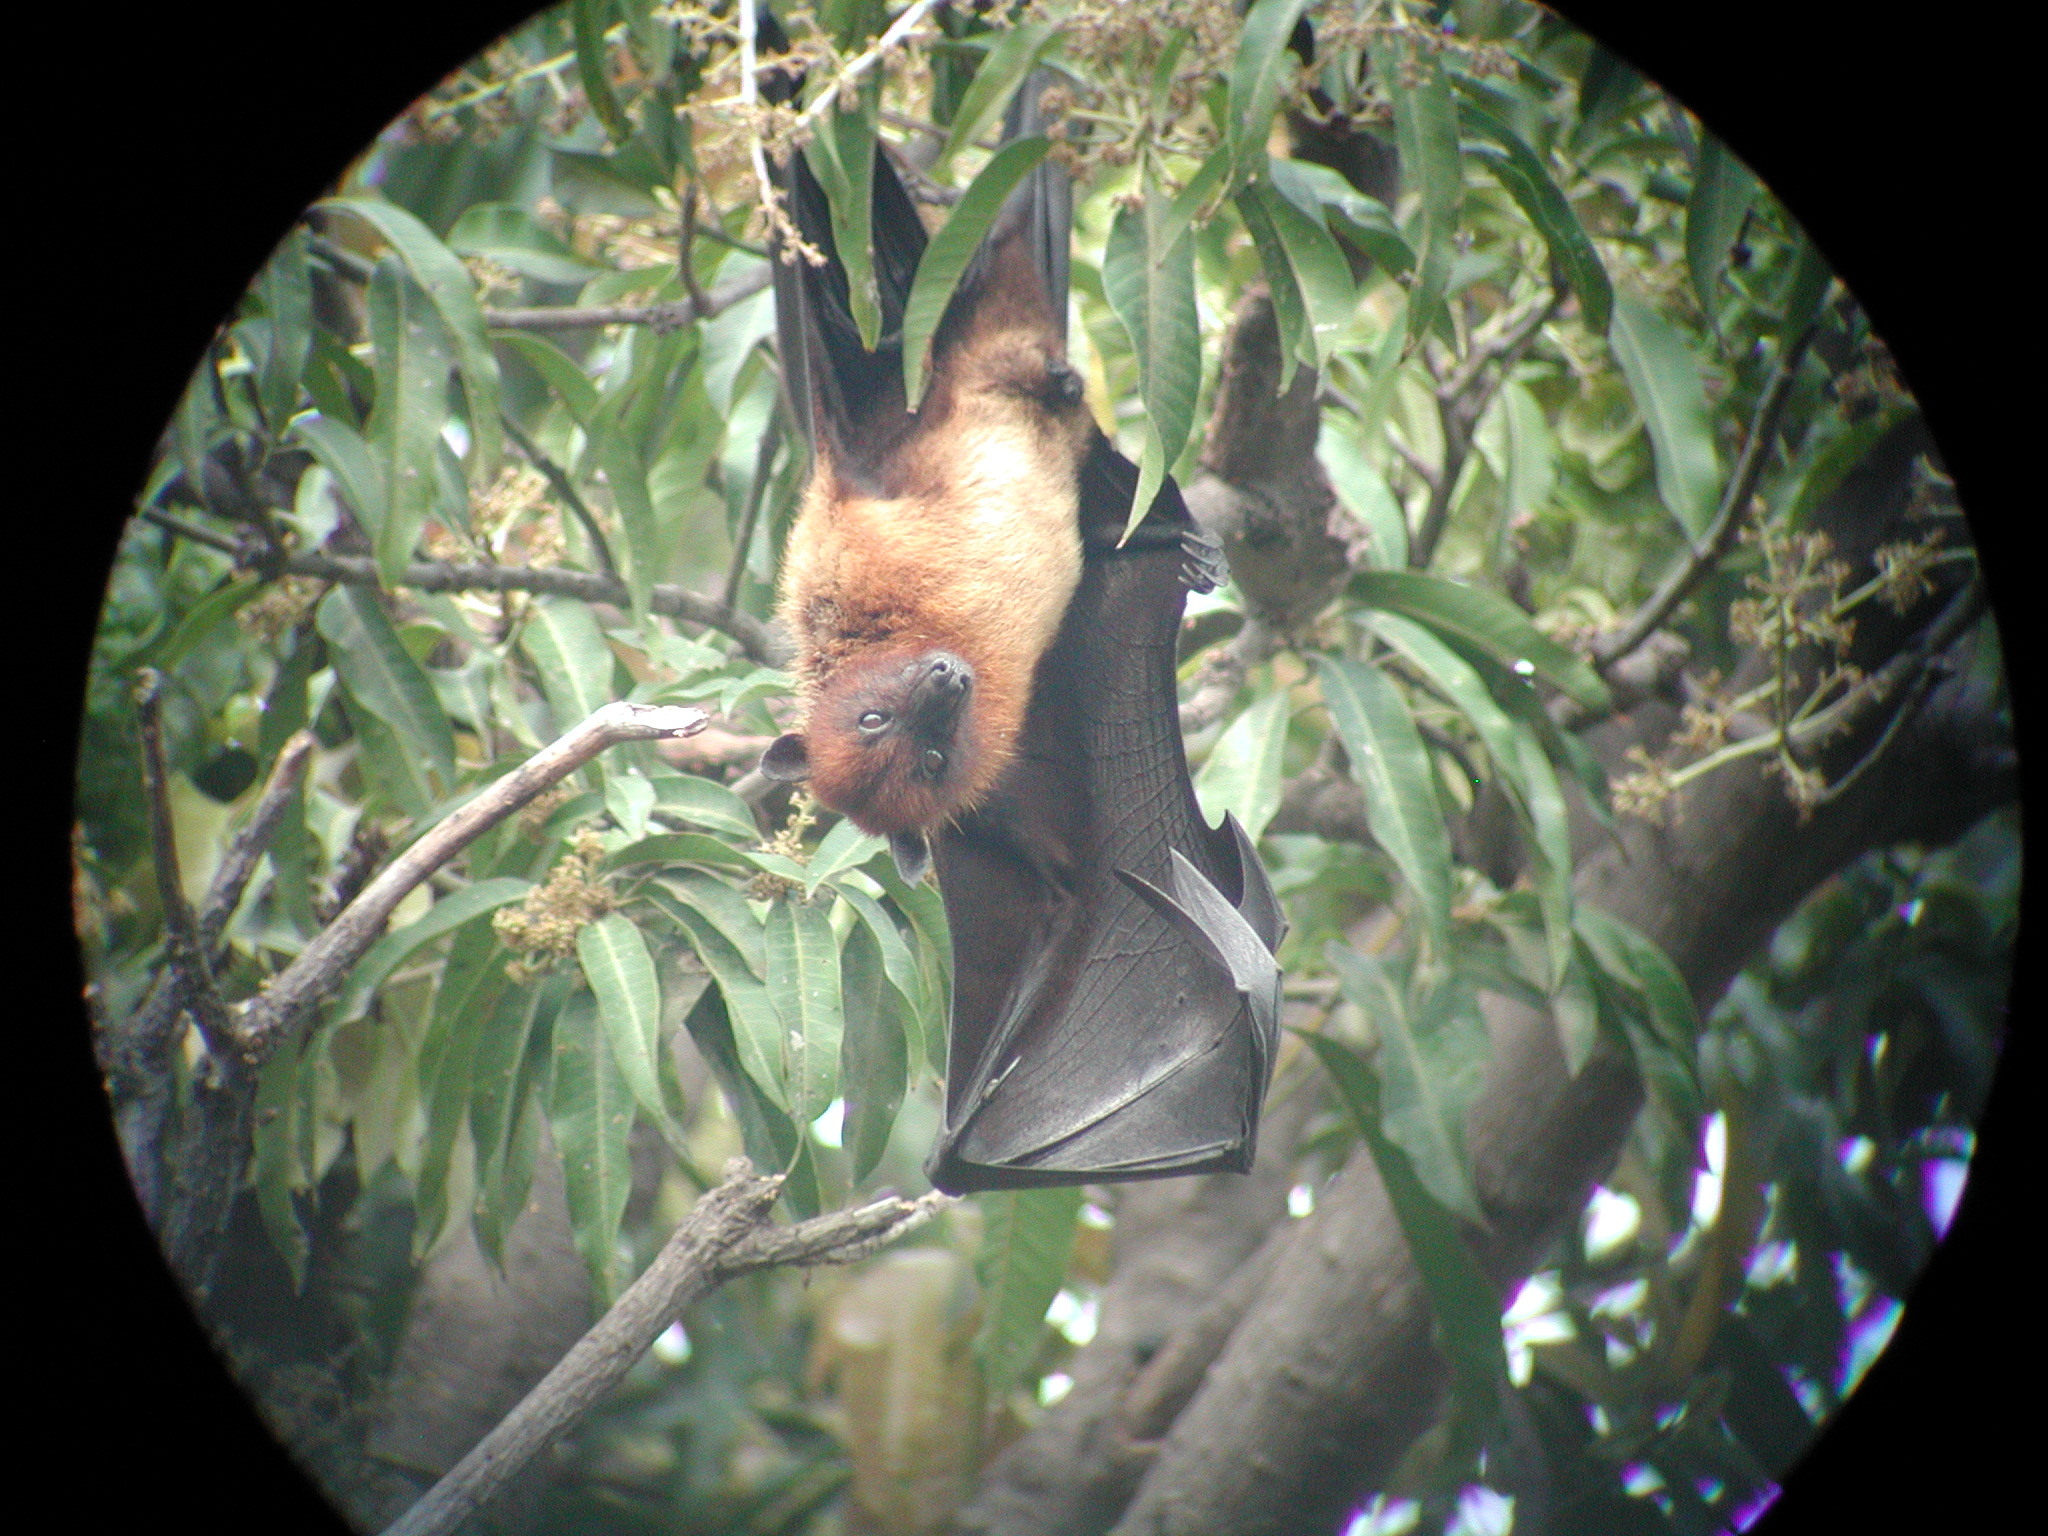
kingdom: Animalia
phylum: Chordata
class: Mammalia
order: Chiroptera
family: Pteropodidae
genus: Pteropus
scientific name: Pteropus vampyrus
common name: Large flying fox
